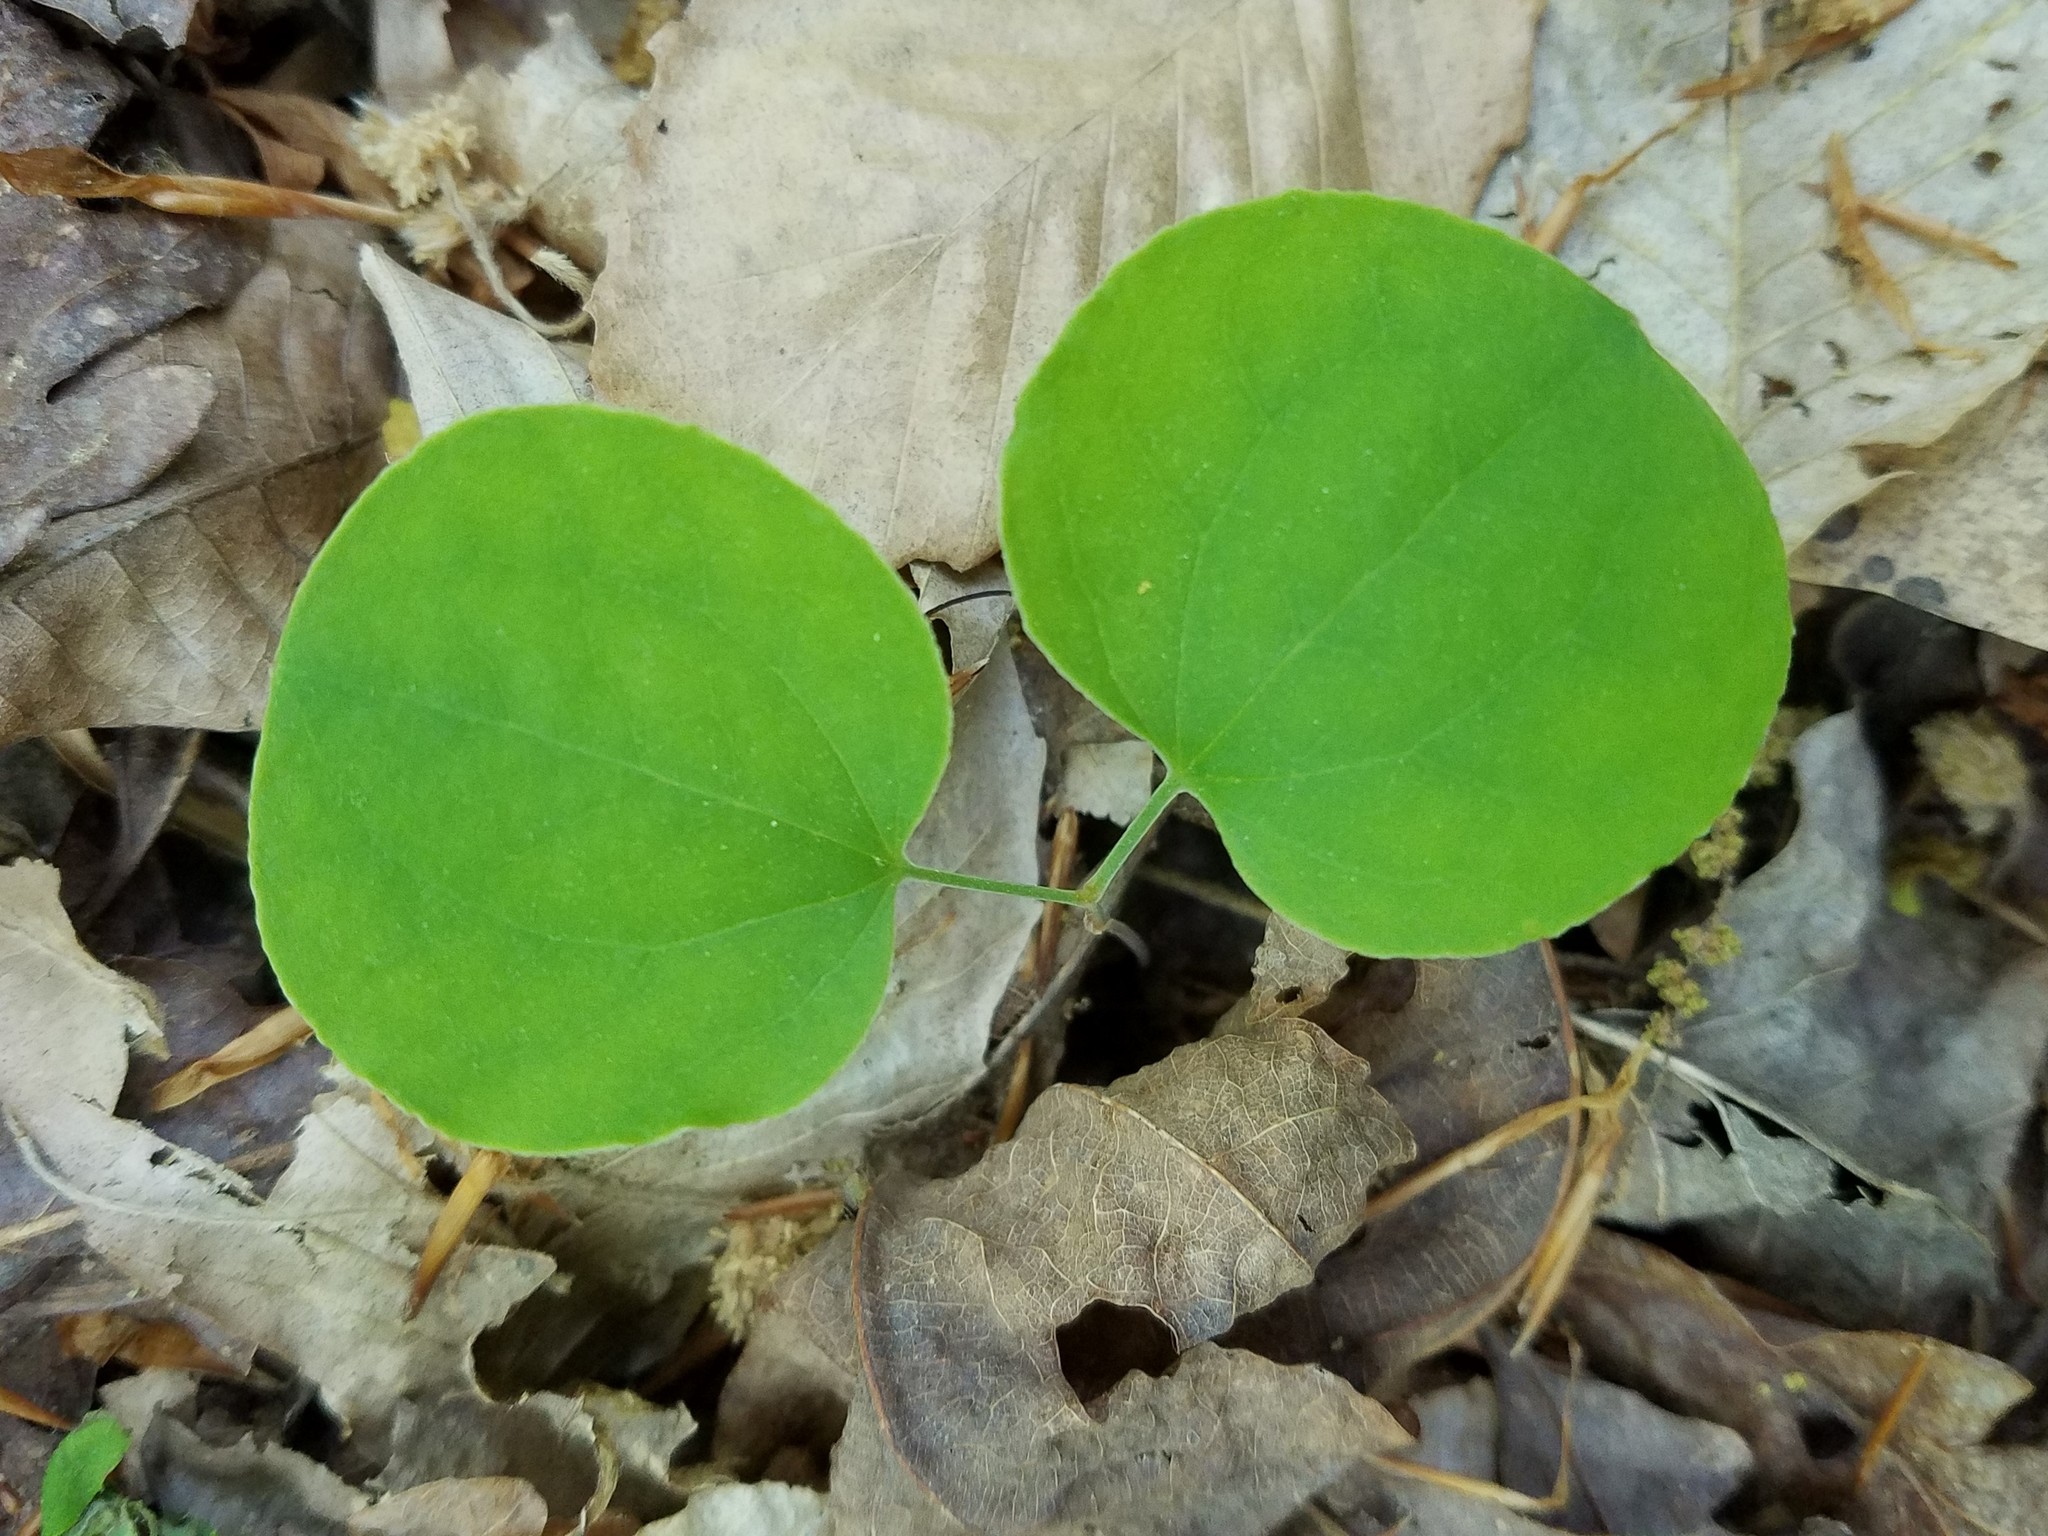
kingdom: Plantae
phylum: Tracheophyta
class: Liliopsida
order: Liliales
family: Smilacaceae
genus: Smilax
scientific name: Smilax glauca
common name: Cat greenbrier
